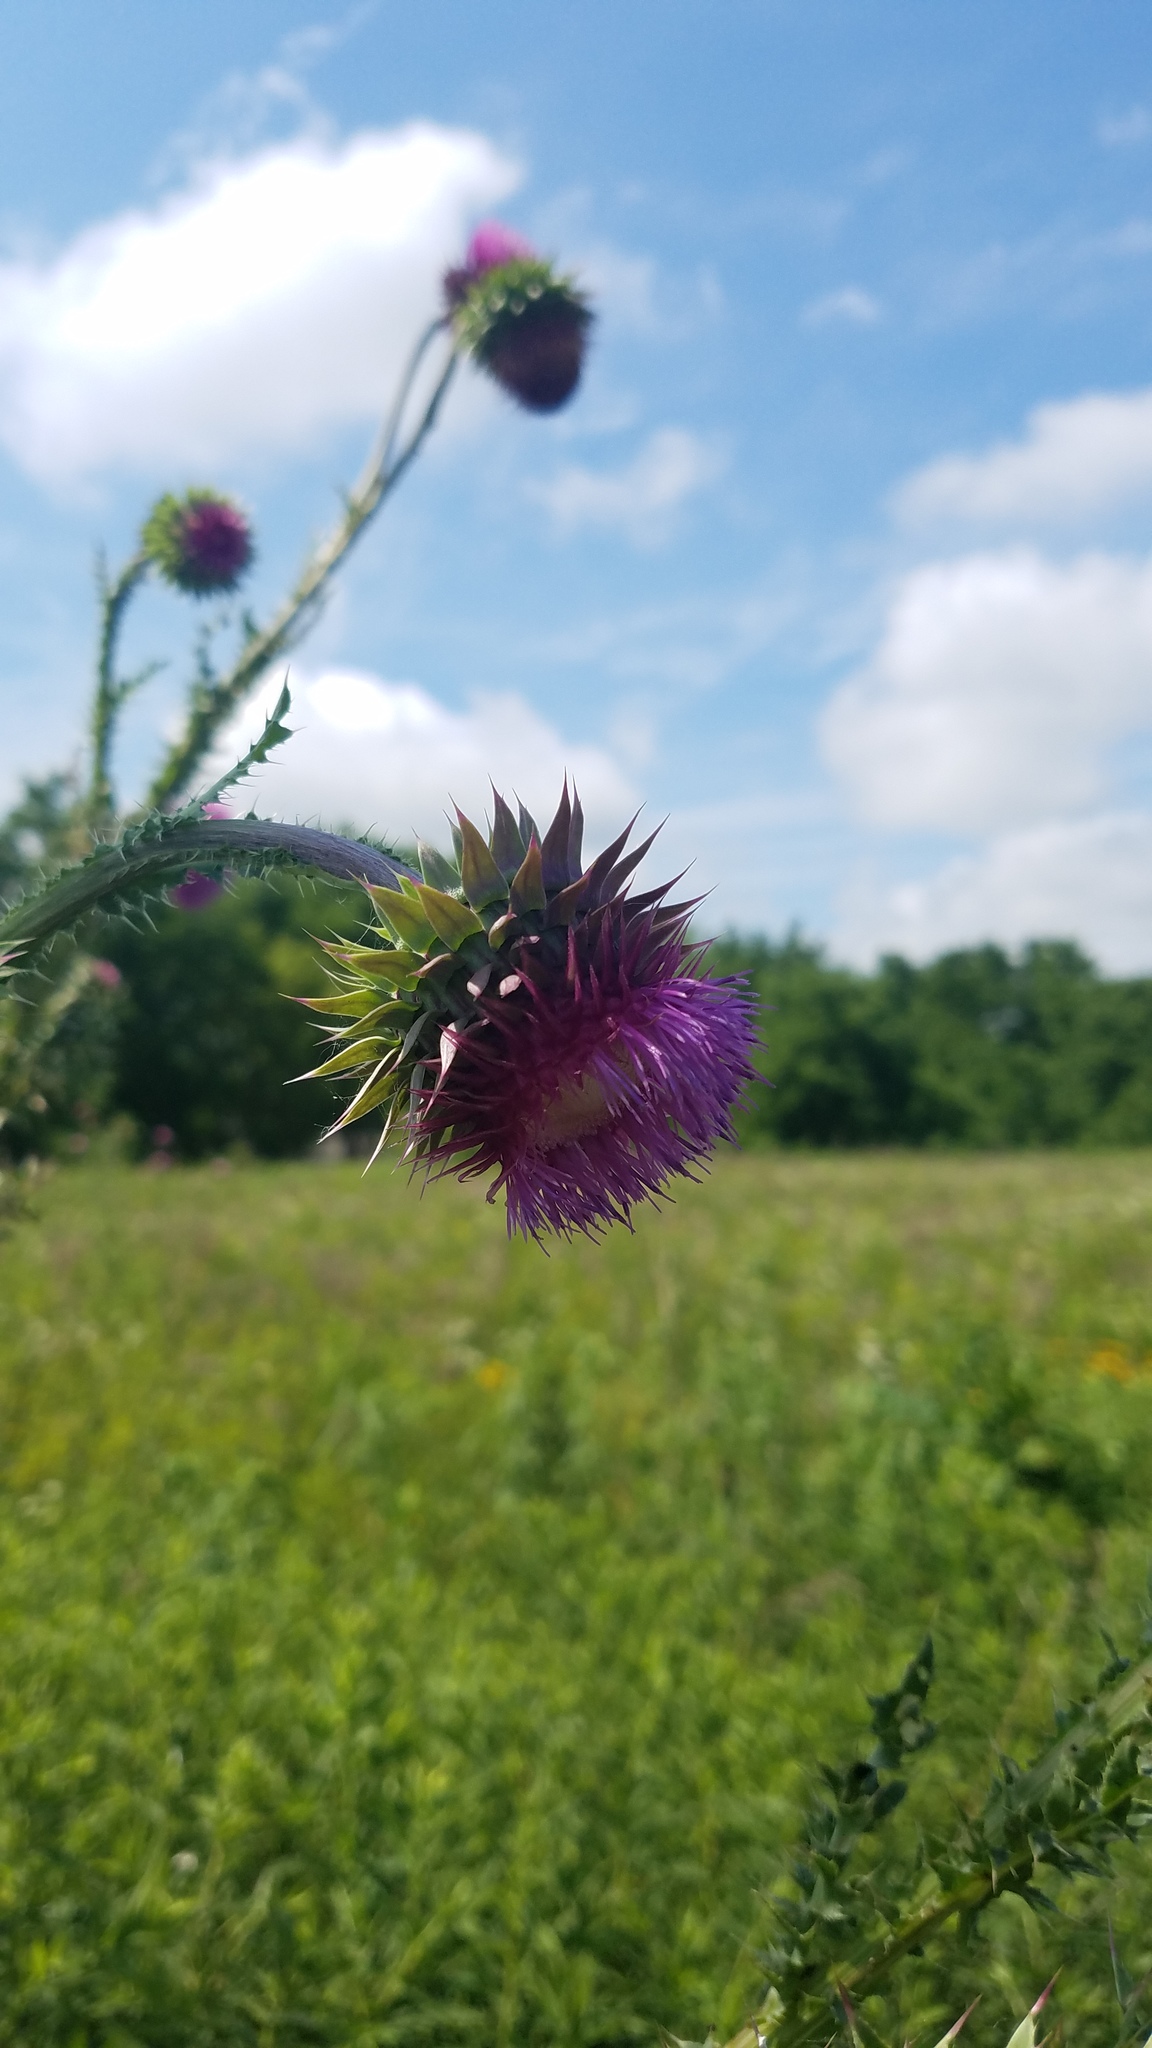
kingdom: Plantae
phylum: Tracheophyta
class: Magnoliopsida
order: Asterales
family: Asteraceae
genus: Carduus
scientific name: Carduus nutans
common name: Musk thistle
